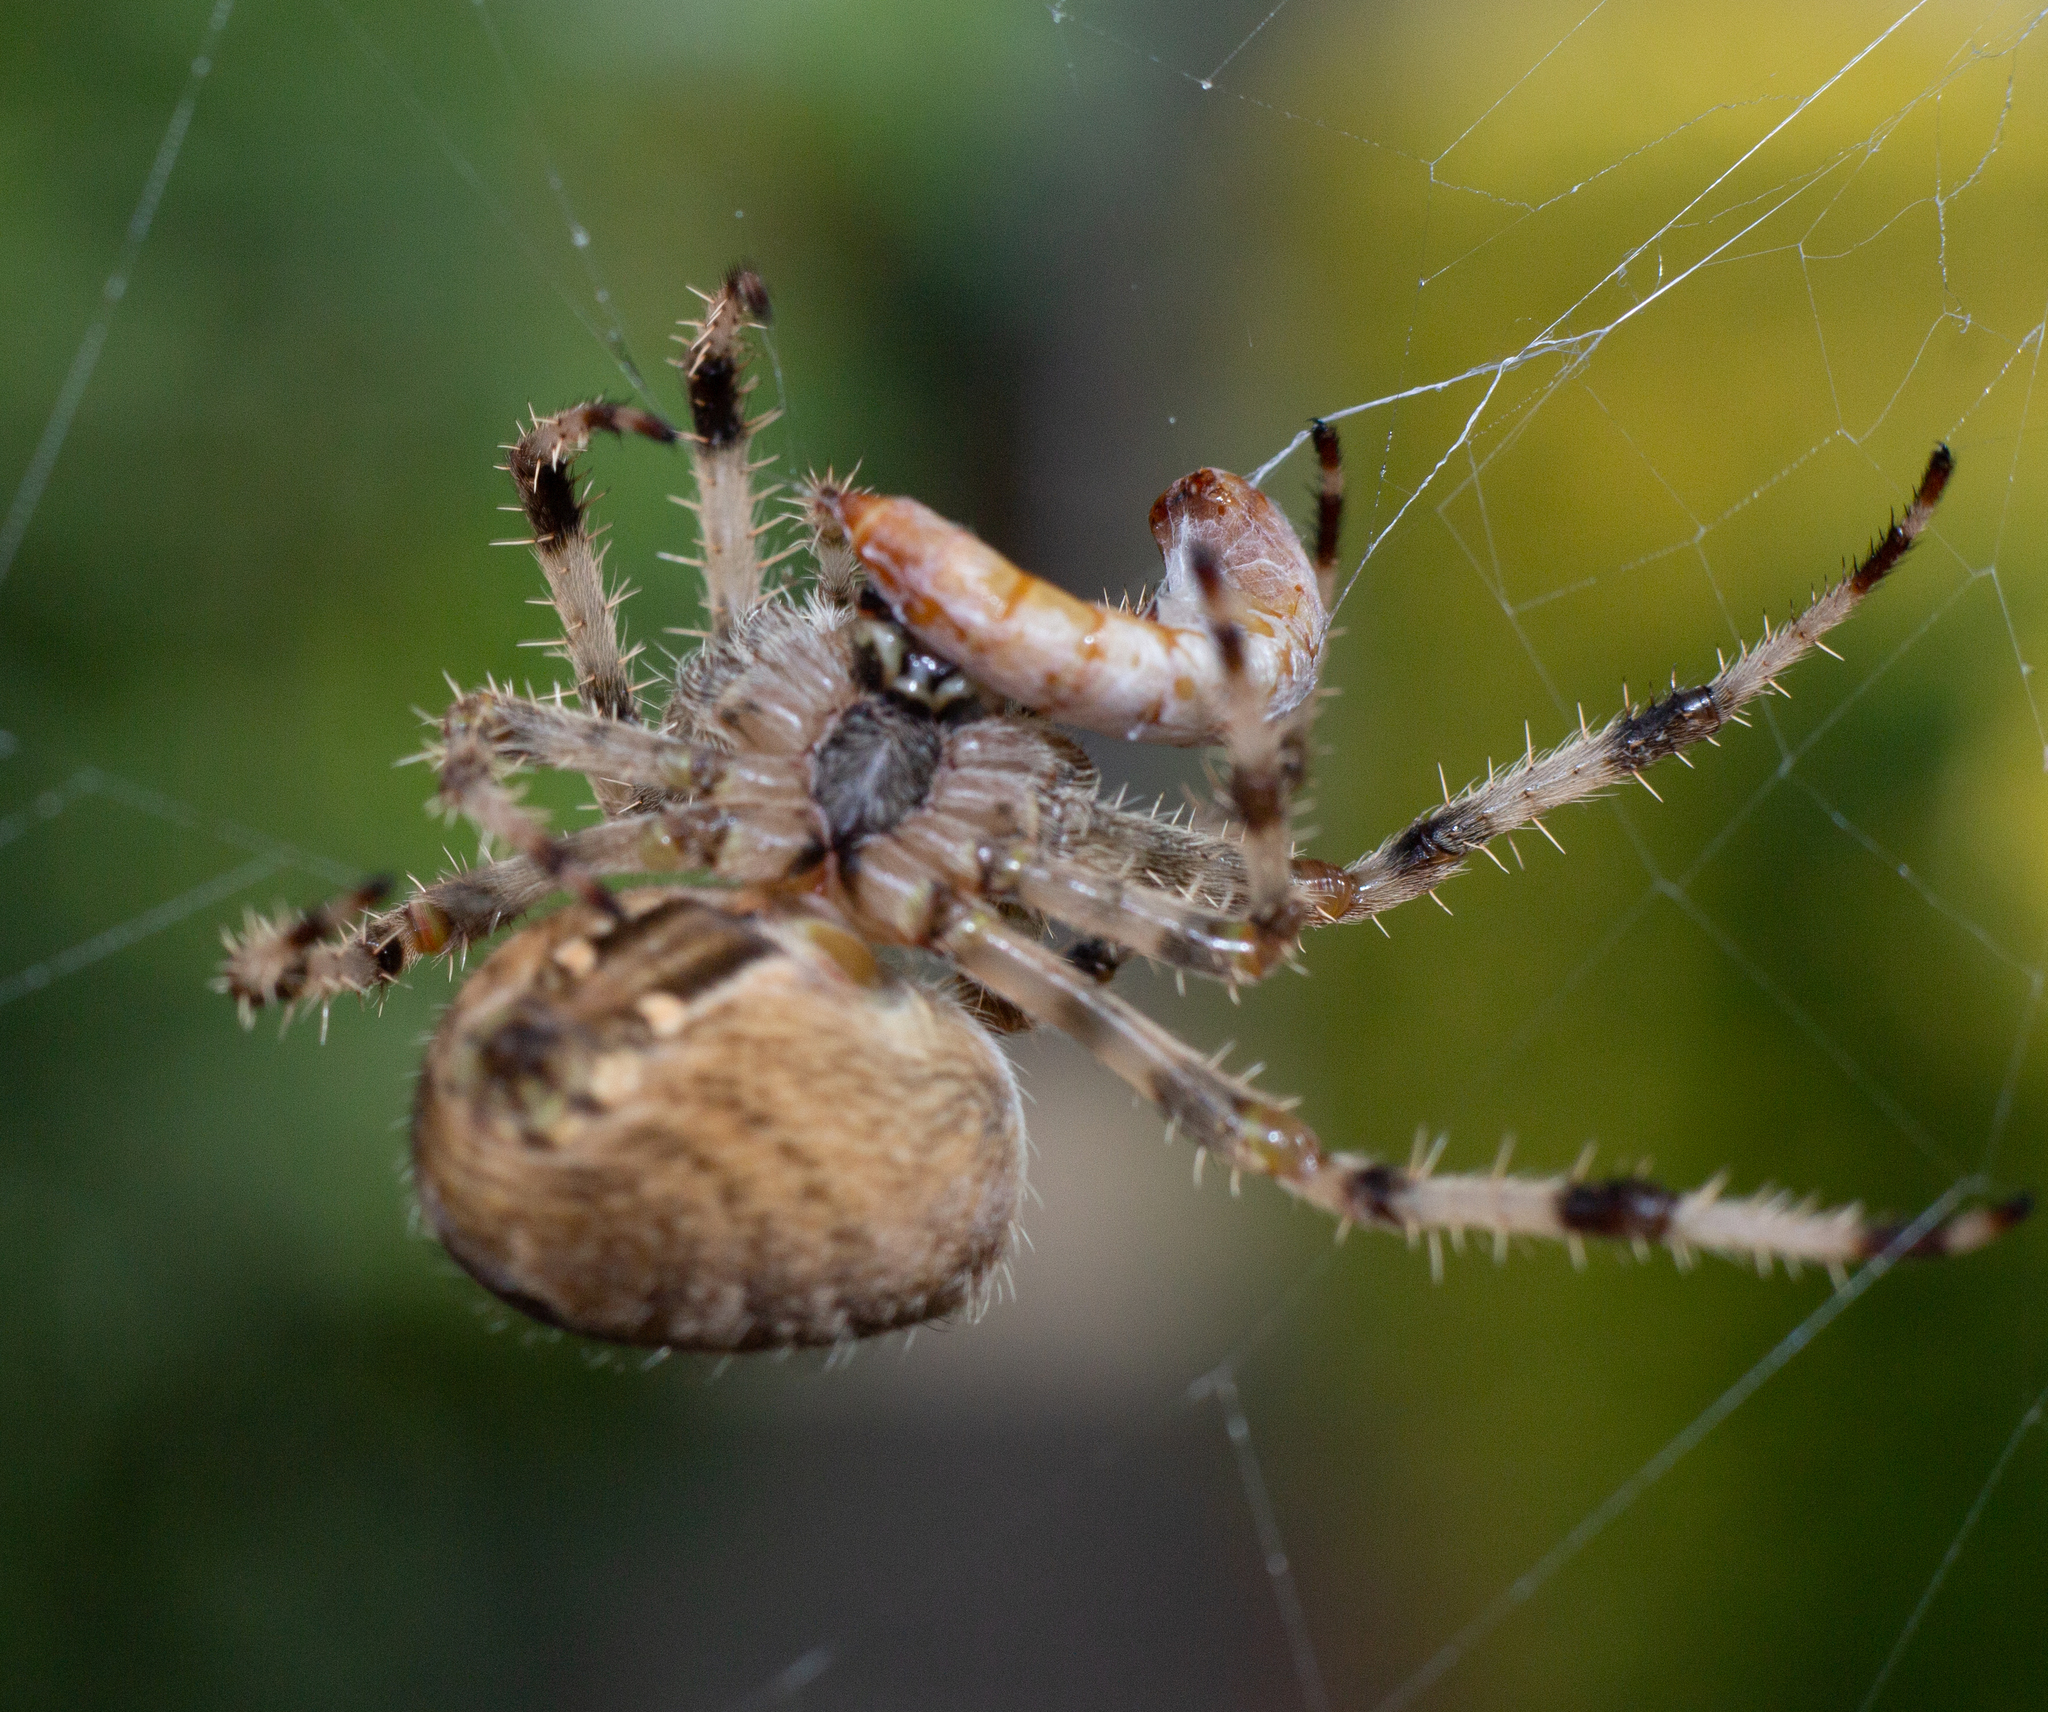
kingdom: Animalia
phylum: Arthropoda
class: Arachnida
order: Araneae
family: Araneidae
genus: Araneus
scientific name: Araneus diadematus
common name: Cross orbweaver
